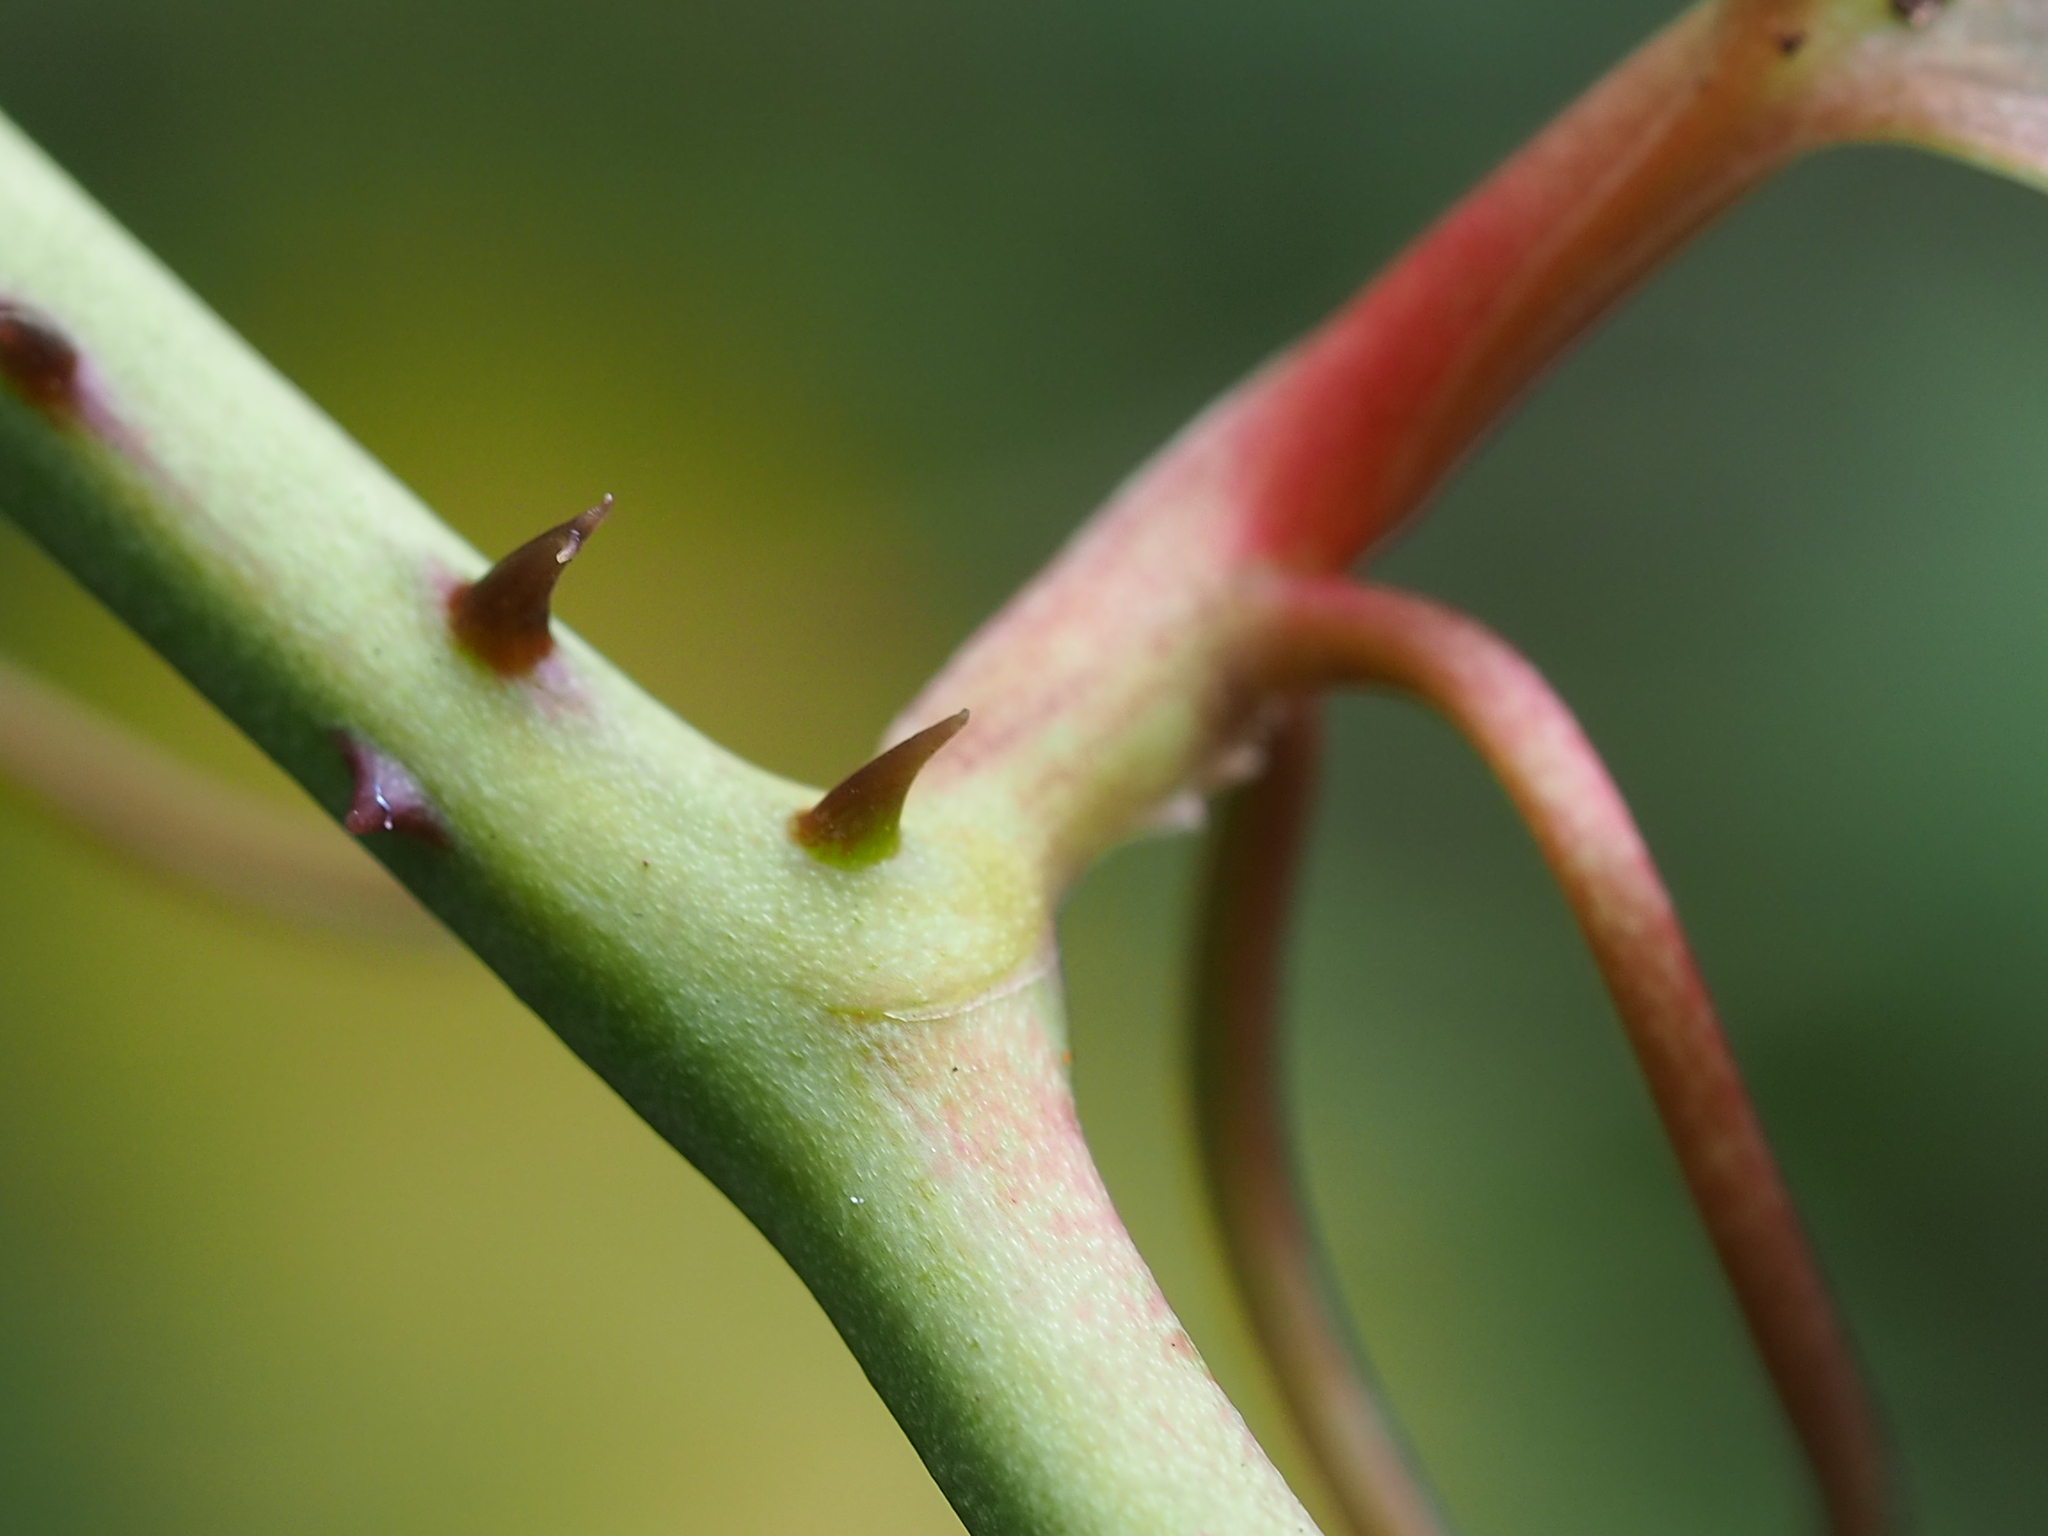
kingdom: Plantae
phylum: Tracheophyta
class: Liliopsida
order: Liliales
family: Smilacaceae
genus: Smilax
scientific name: Smilax bracteata
